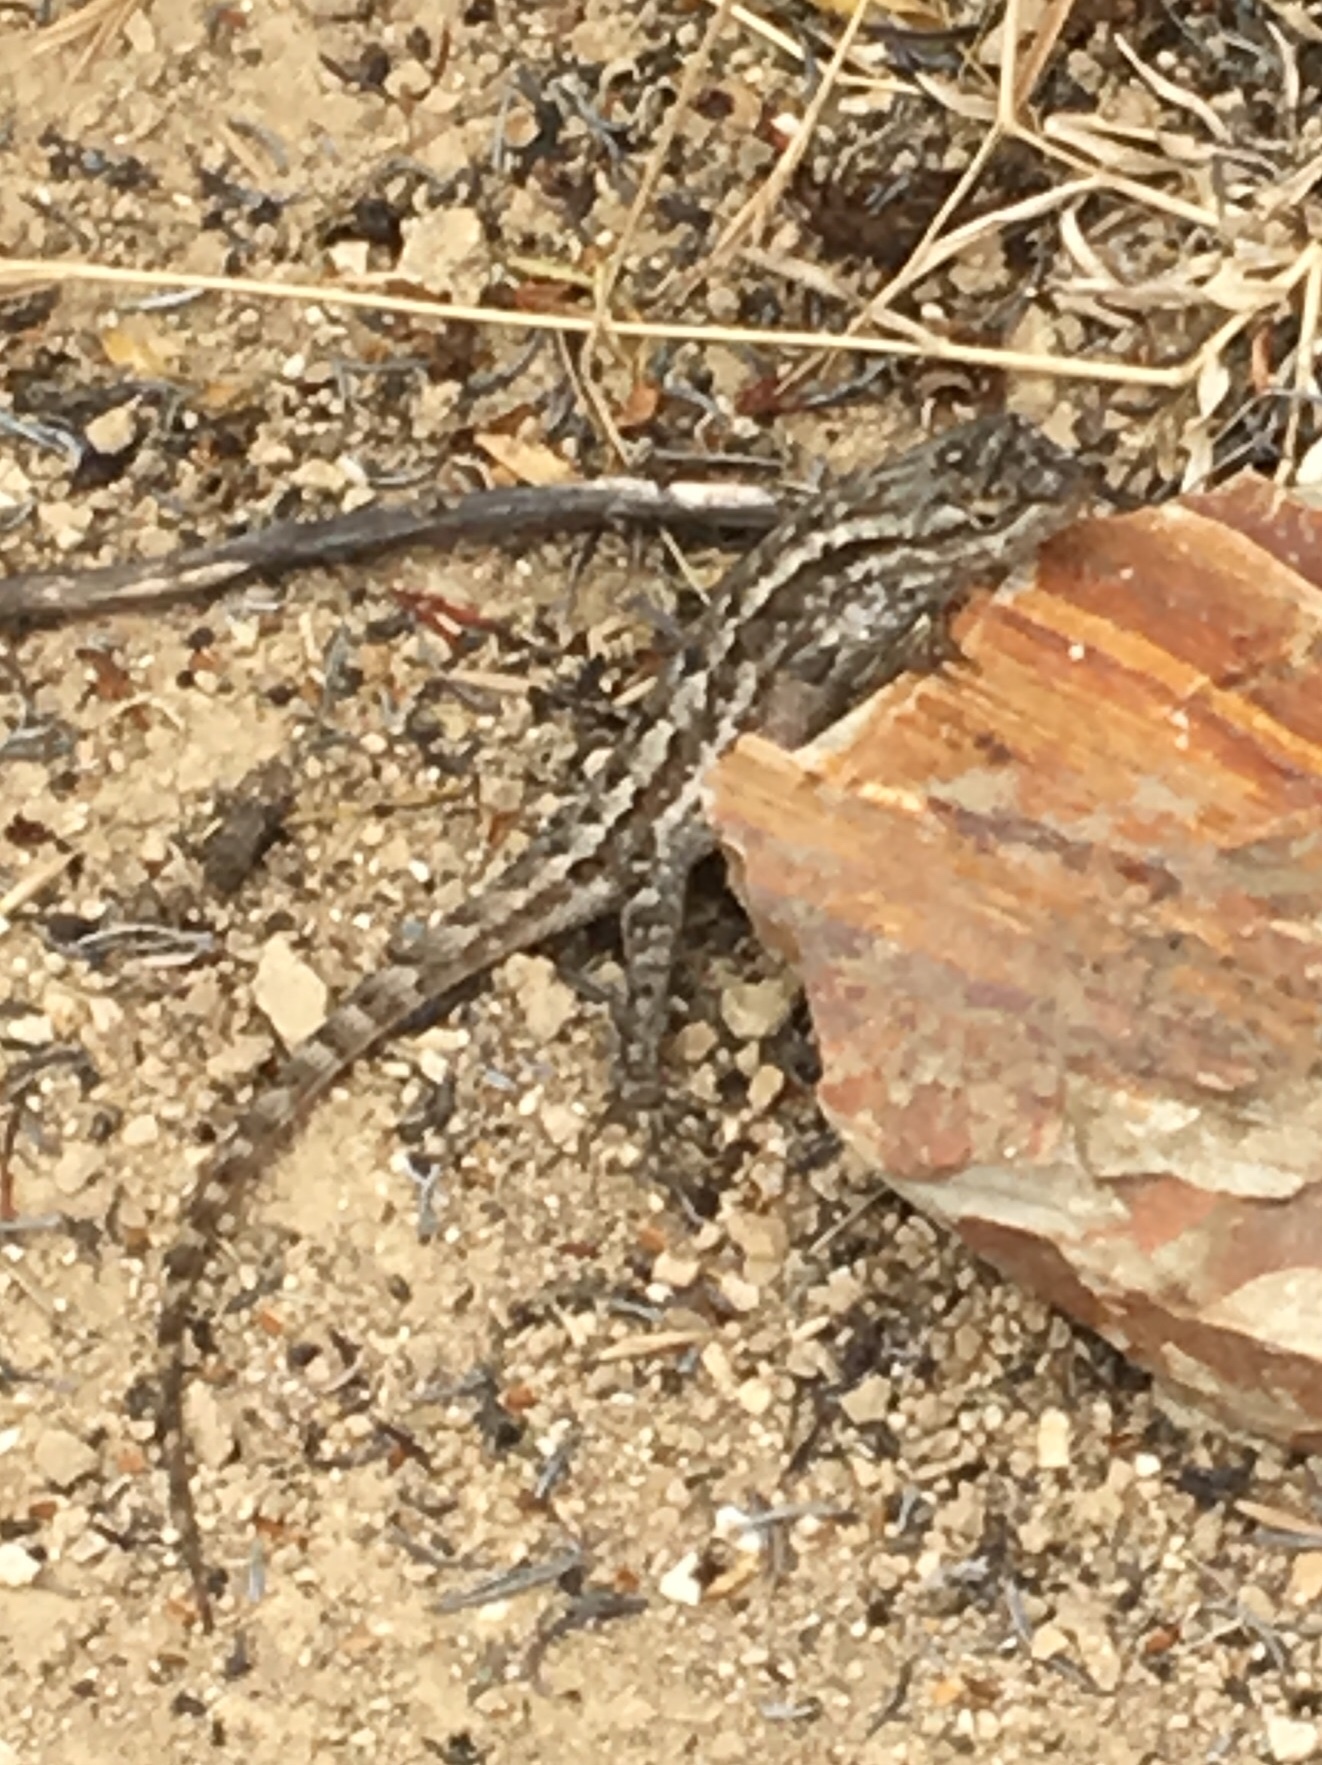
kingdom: Animalia
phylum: Chordata
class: Squamata
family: Phrynosomatidae
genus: Sceloporus
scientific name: Sceloporus occidentalis
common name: Western fence lizard
